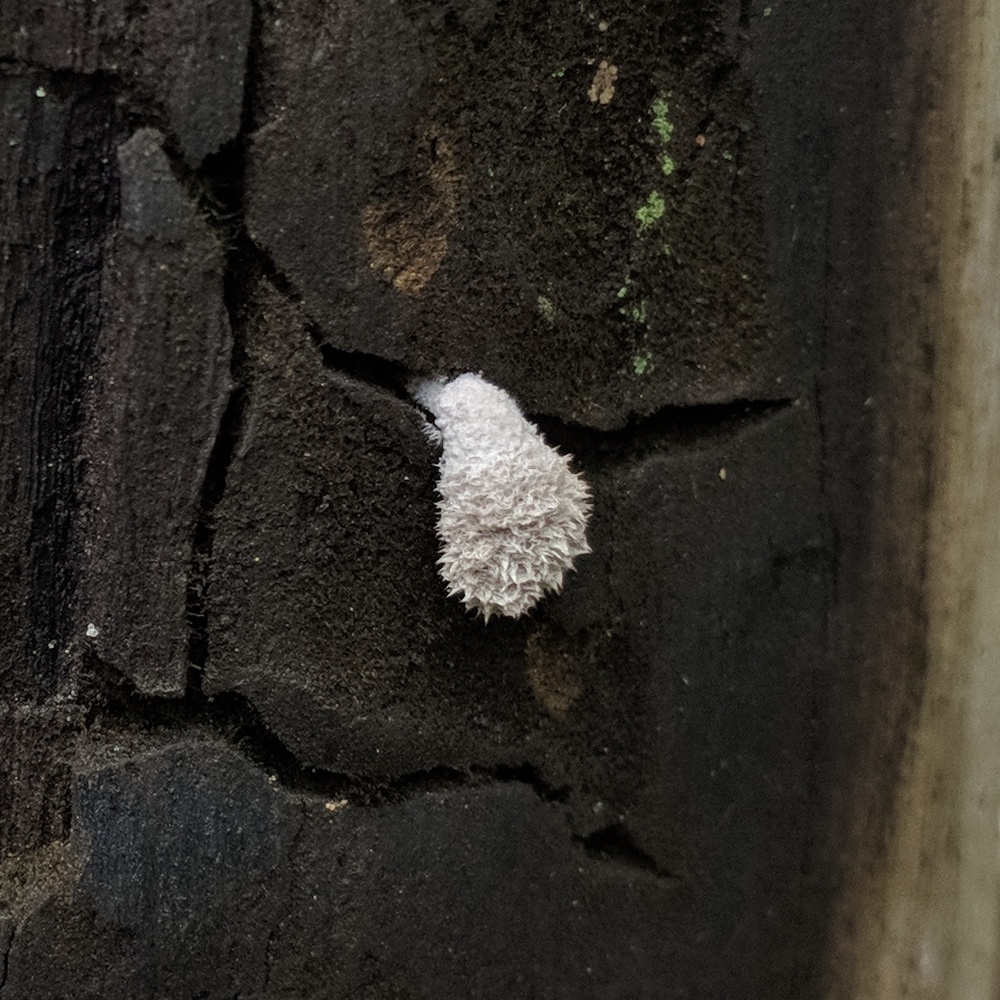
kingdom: Fungi
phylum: Basidiomycota
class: Agaricomycetes
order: Agaricales
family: Schizophyllaceae
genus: Schizophyllum
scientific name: Schizophyllum commune
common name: Common porecrust
